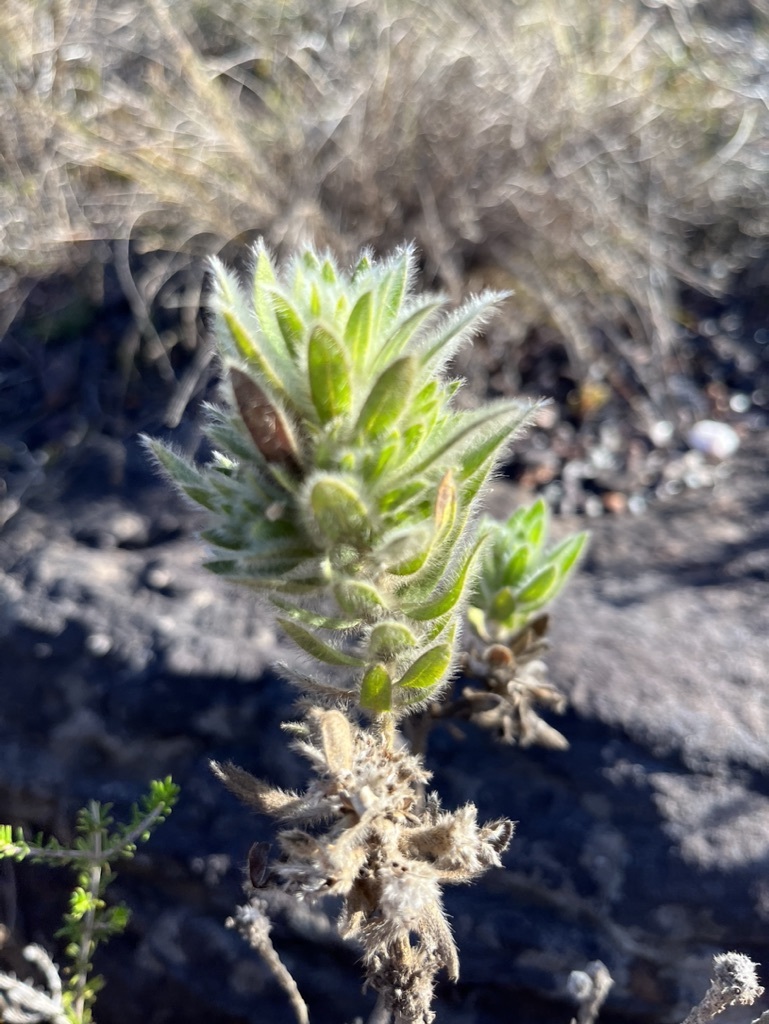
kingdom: Plantae
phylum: Tracheophyta
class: Magnoliopsida
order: Fabales
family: Fabaceae
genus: Xiphotheca
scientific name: Xiphotheca guthriei
